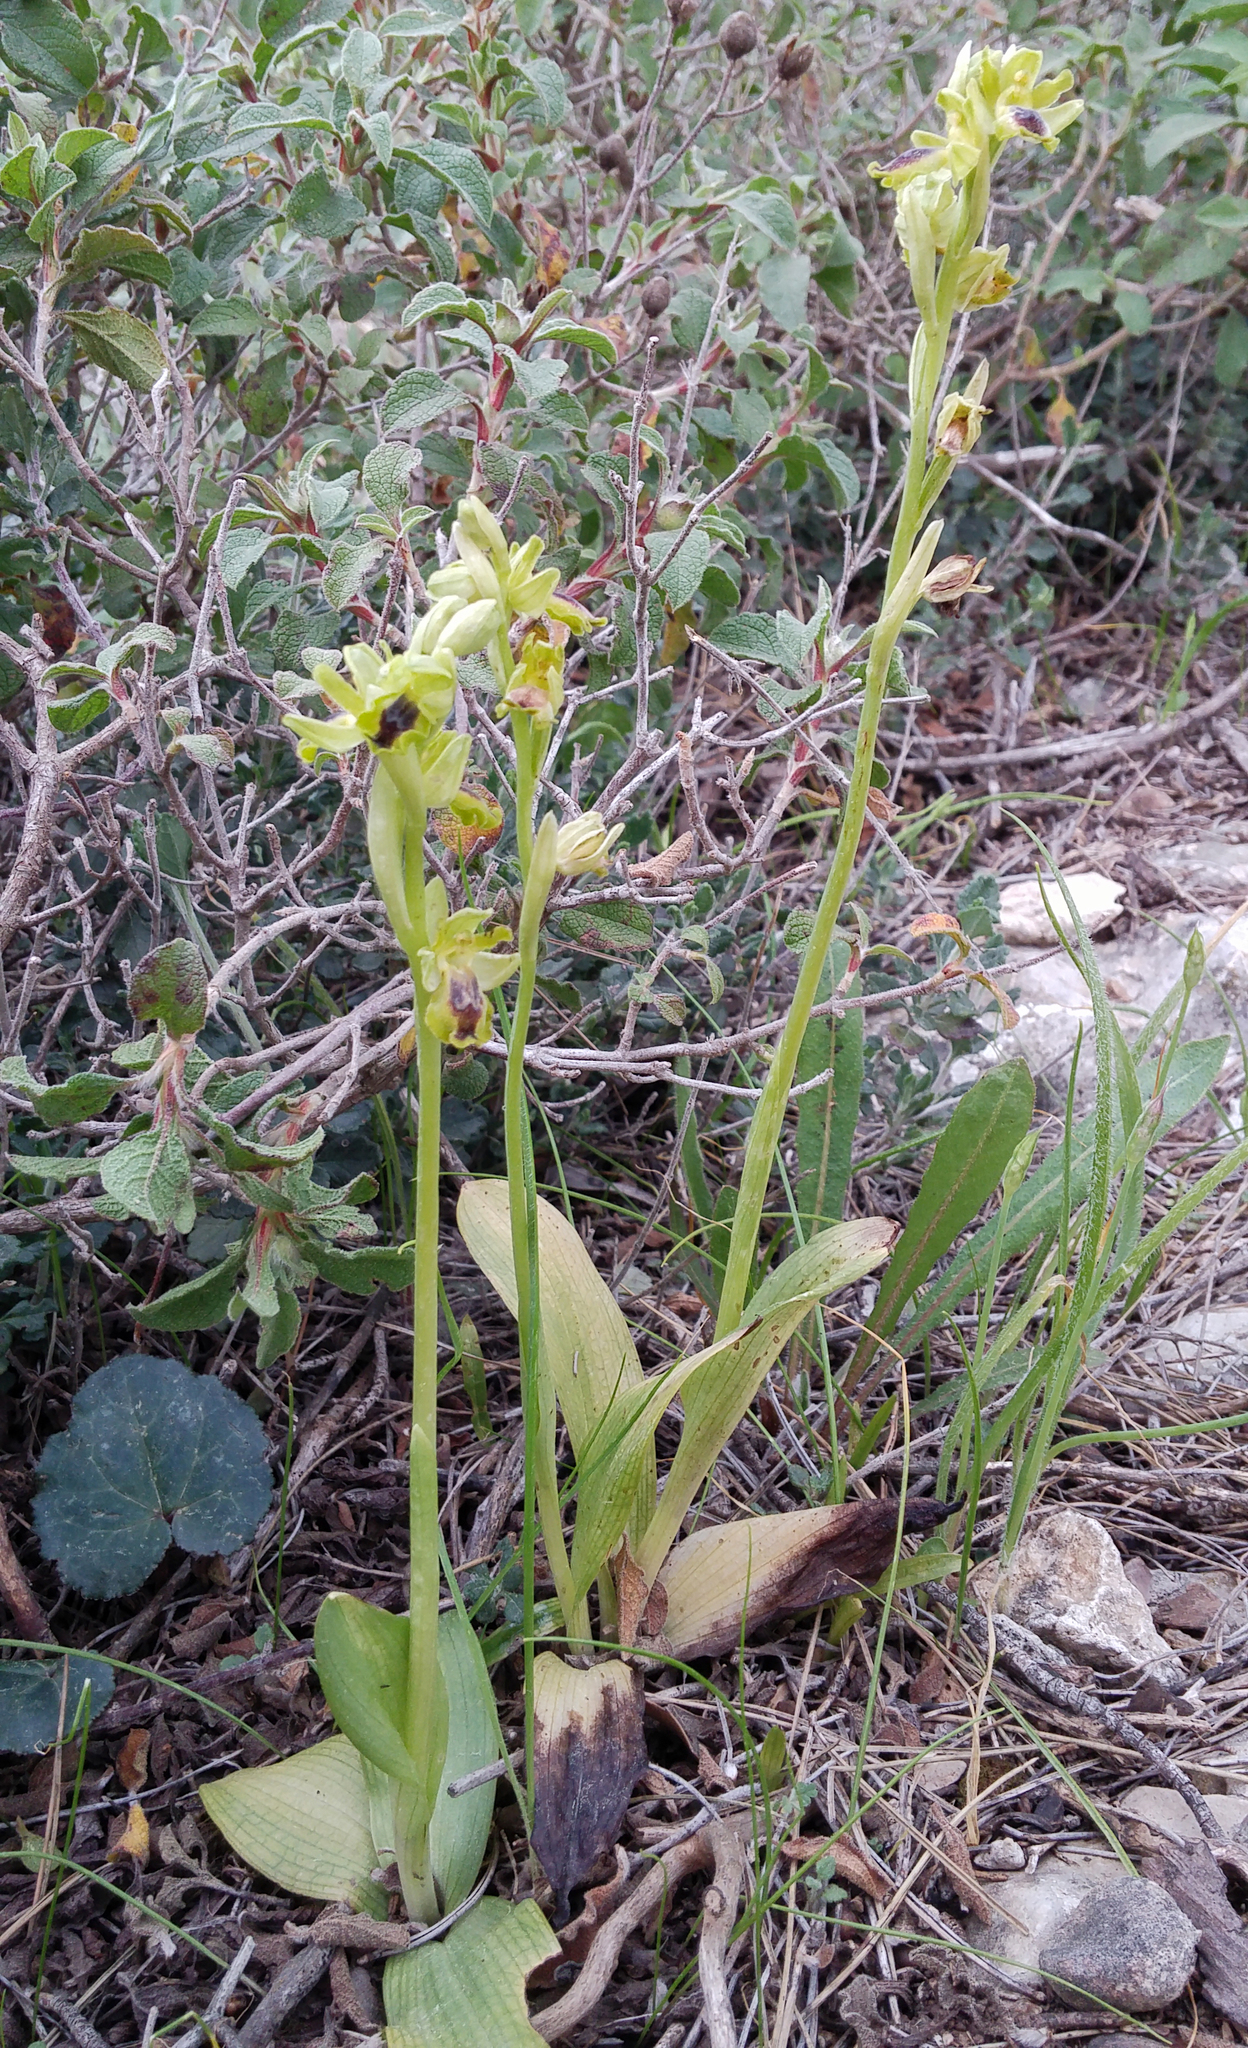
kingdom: Plantae
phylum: Tracheophyta
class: Liliopsida
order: Asparagales
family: Orchidaceae
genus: Ophrys
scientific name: Ophrys lutea
